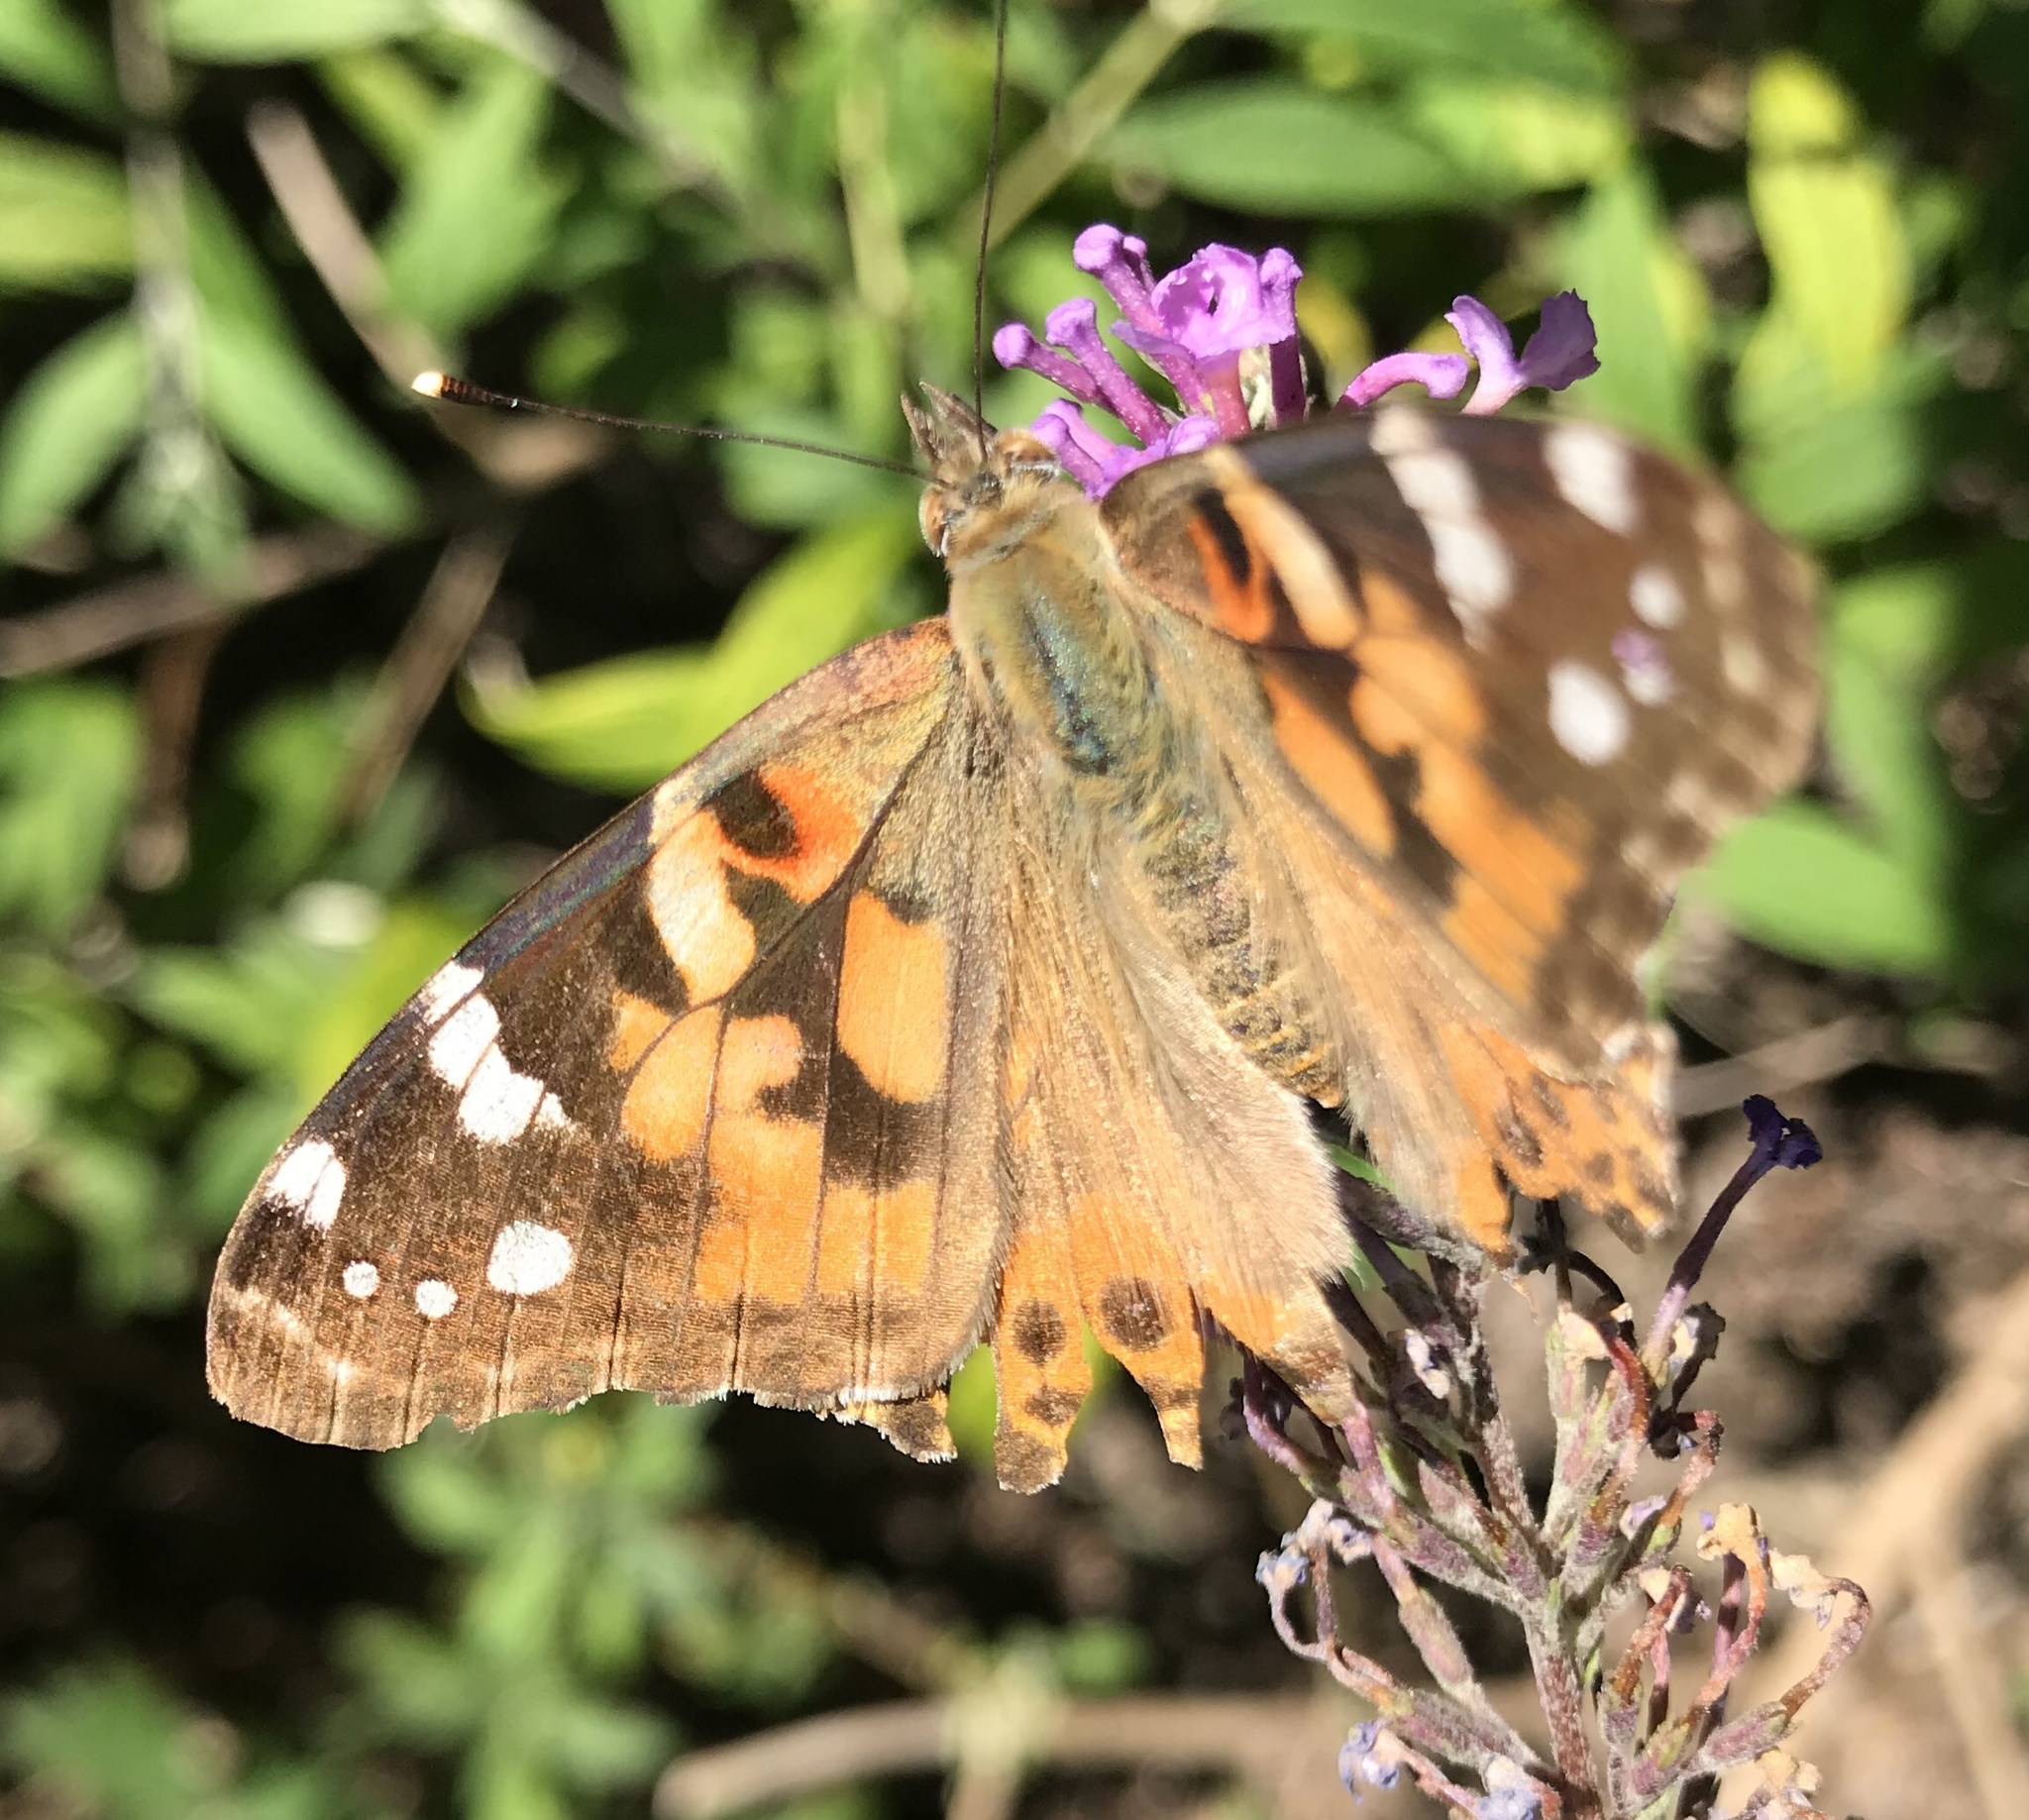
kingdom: Animalia
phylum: Arthropoda
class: Insecta
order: Lepidoptera
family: Nymphalidae
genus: Vanessa
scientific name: Vanessa cardui
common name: Painted lady
